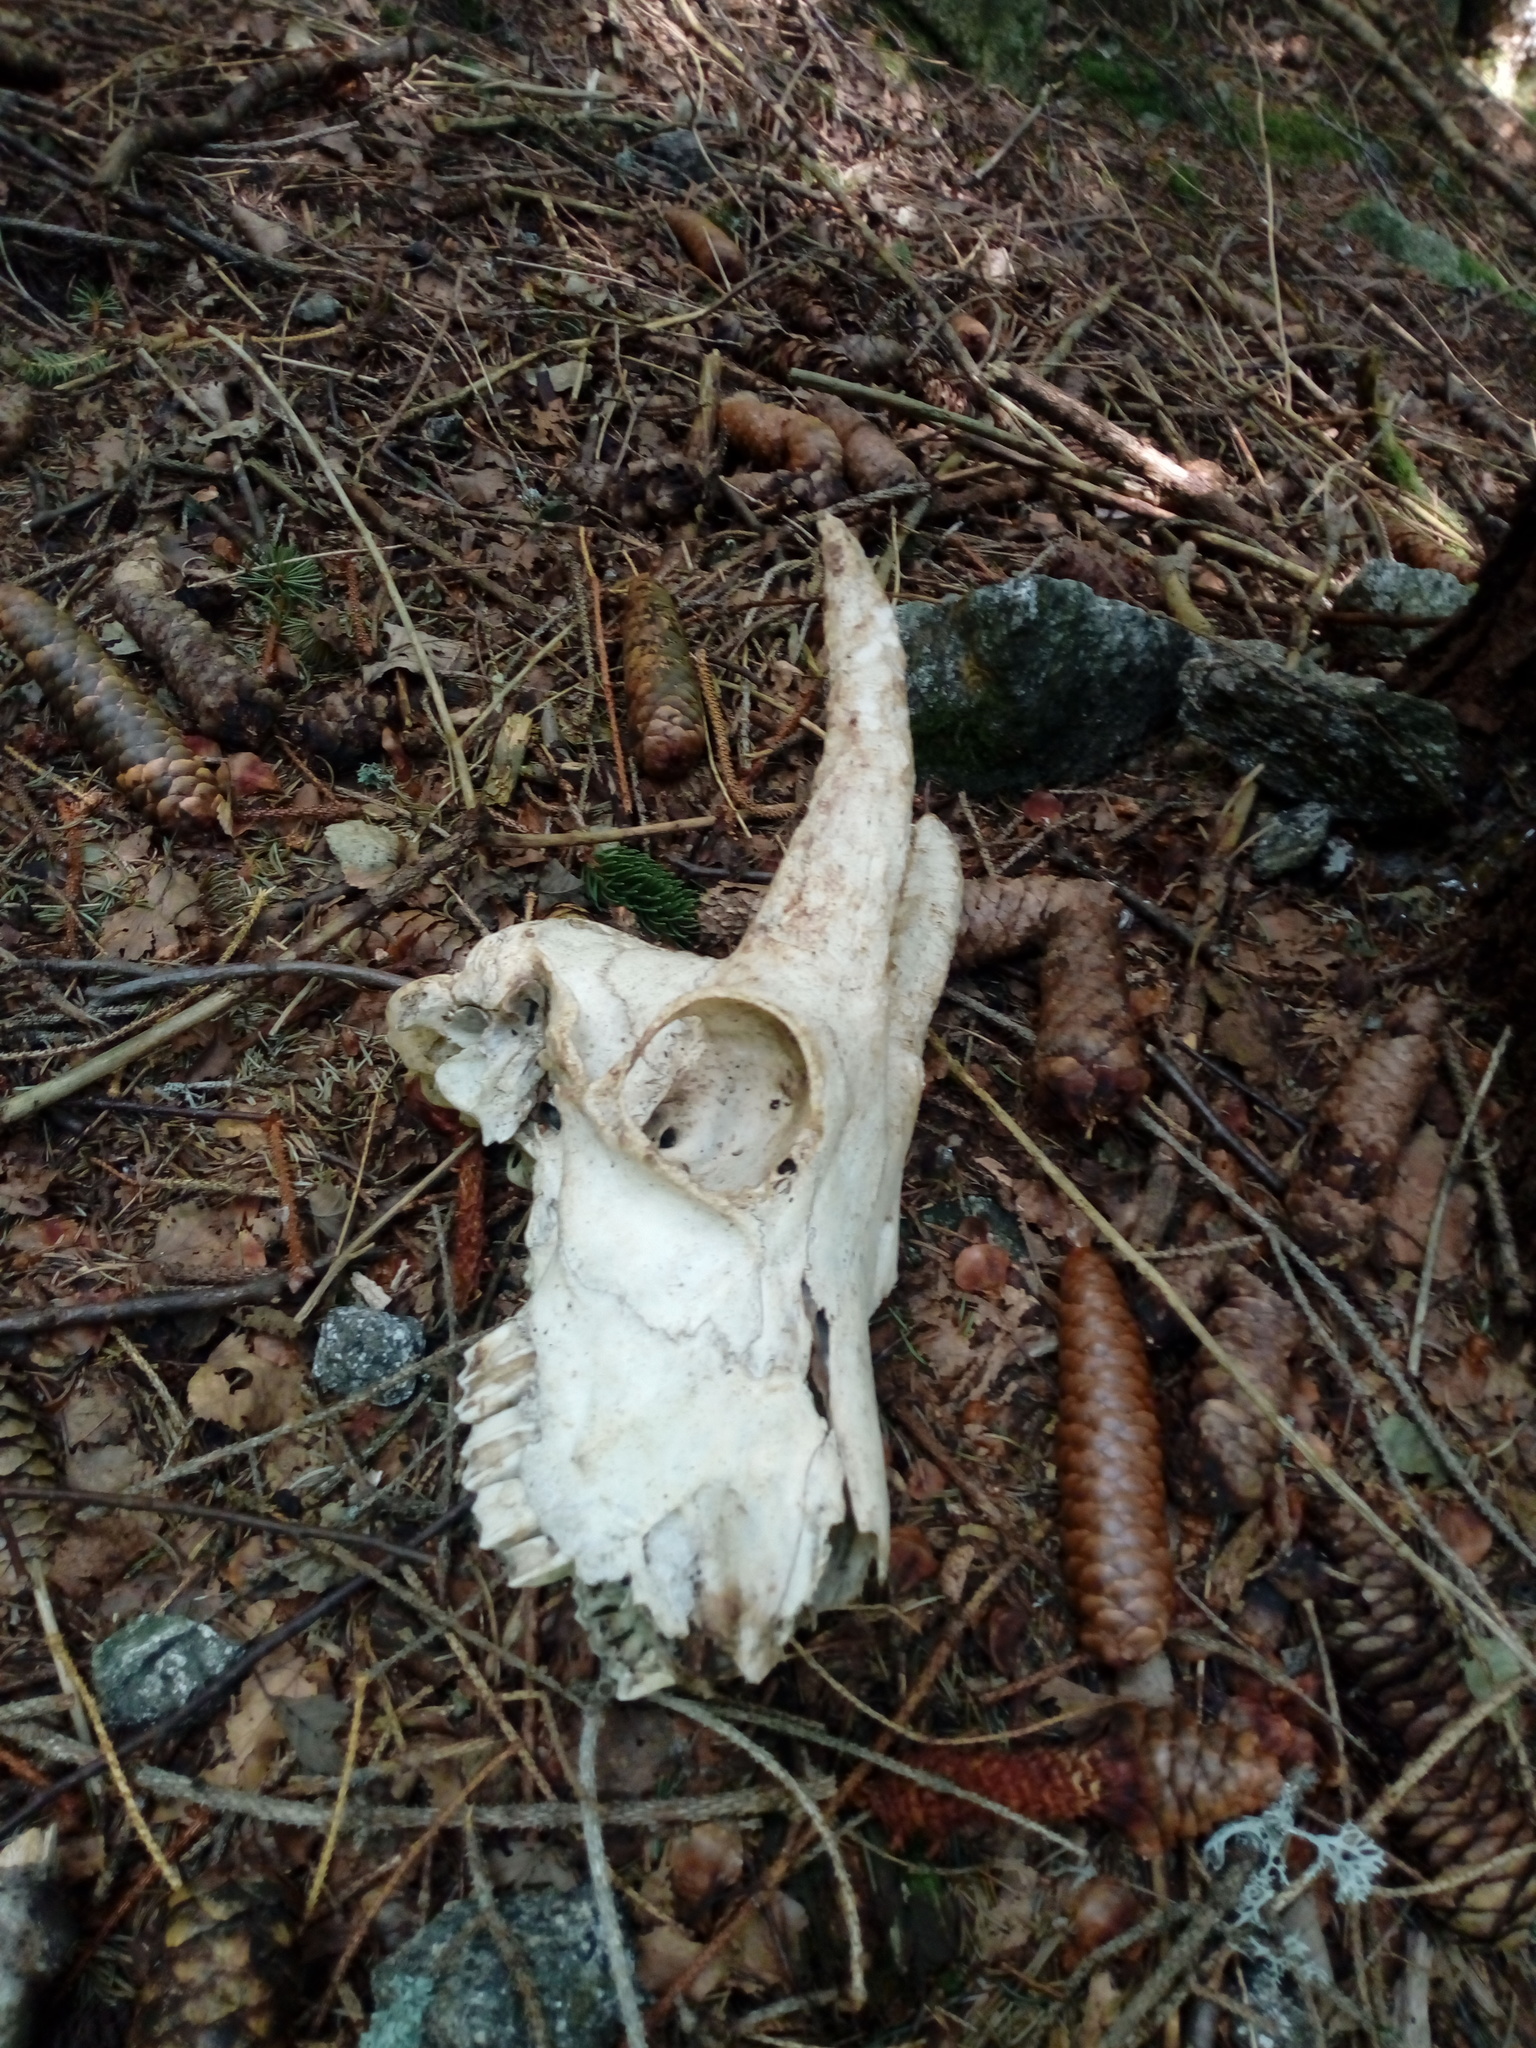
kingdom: Animalia
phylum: Chordata
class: Mammalia
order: Artiodactyla
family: Bovidae
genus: Capra
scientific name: Capra ibex
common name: Alpine ibex
